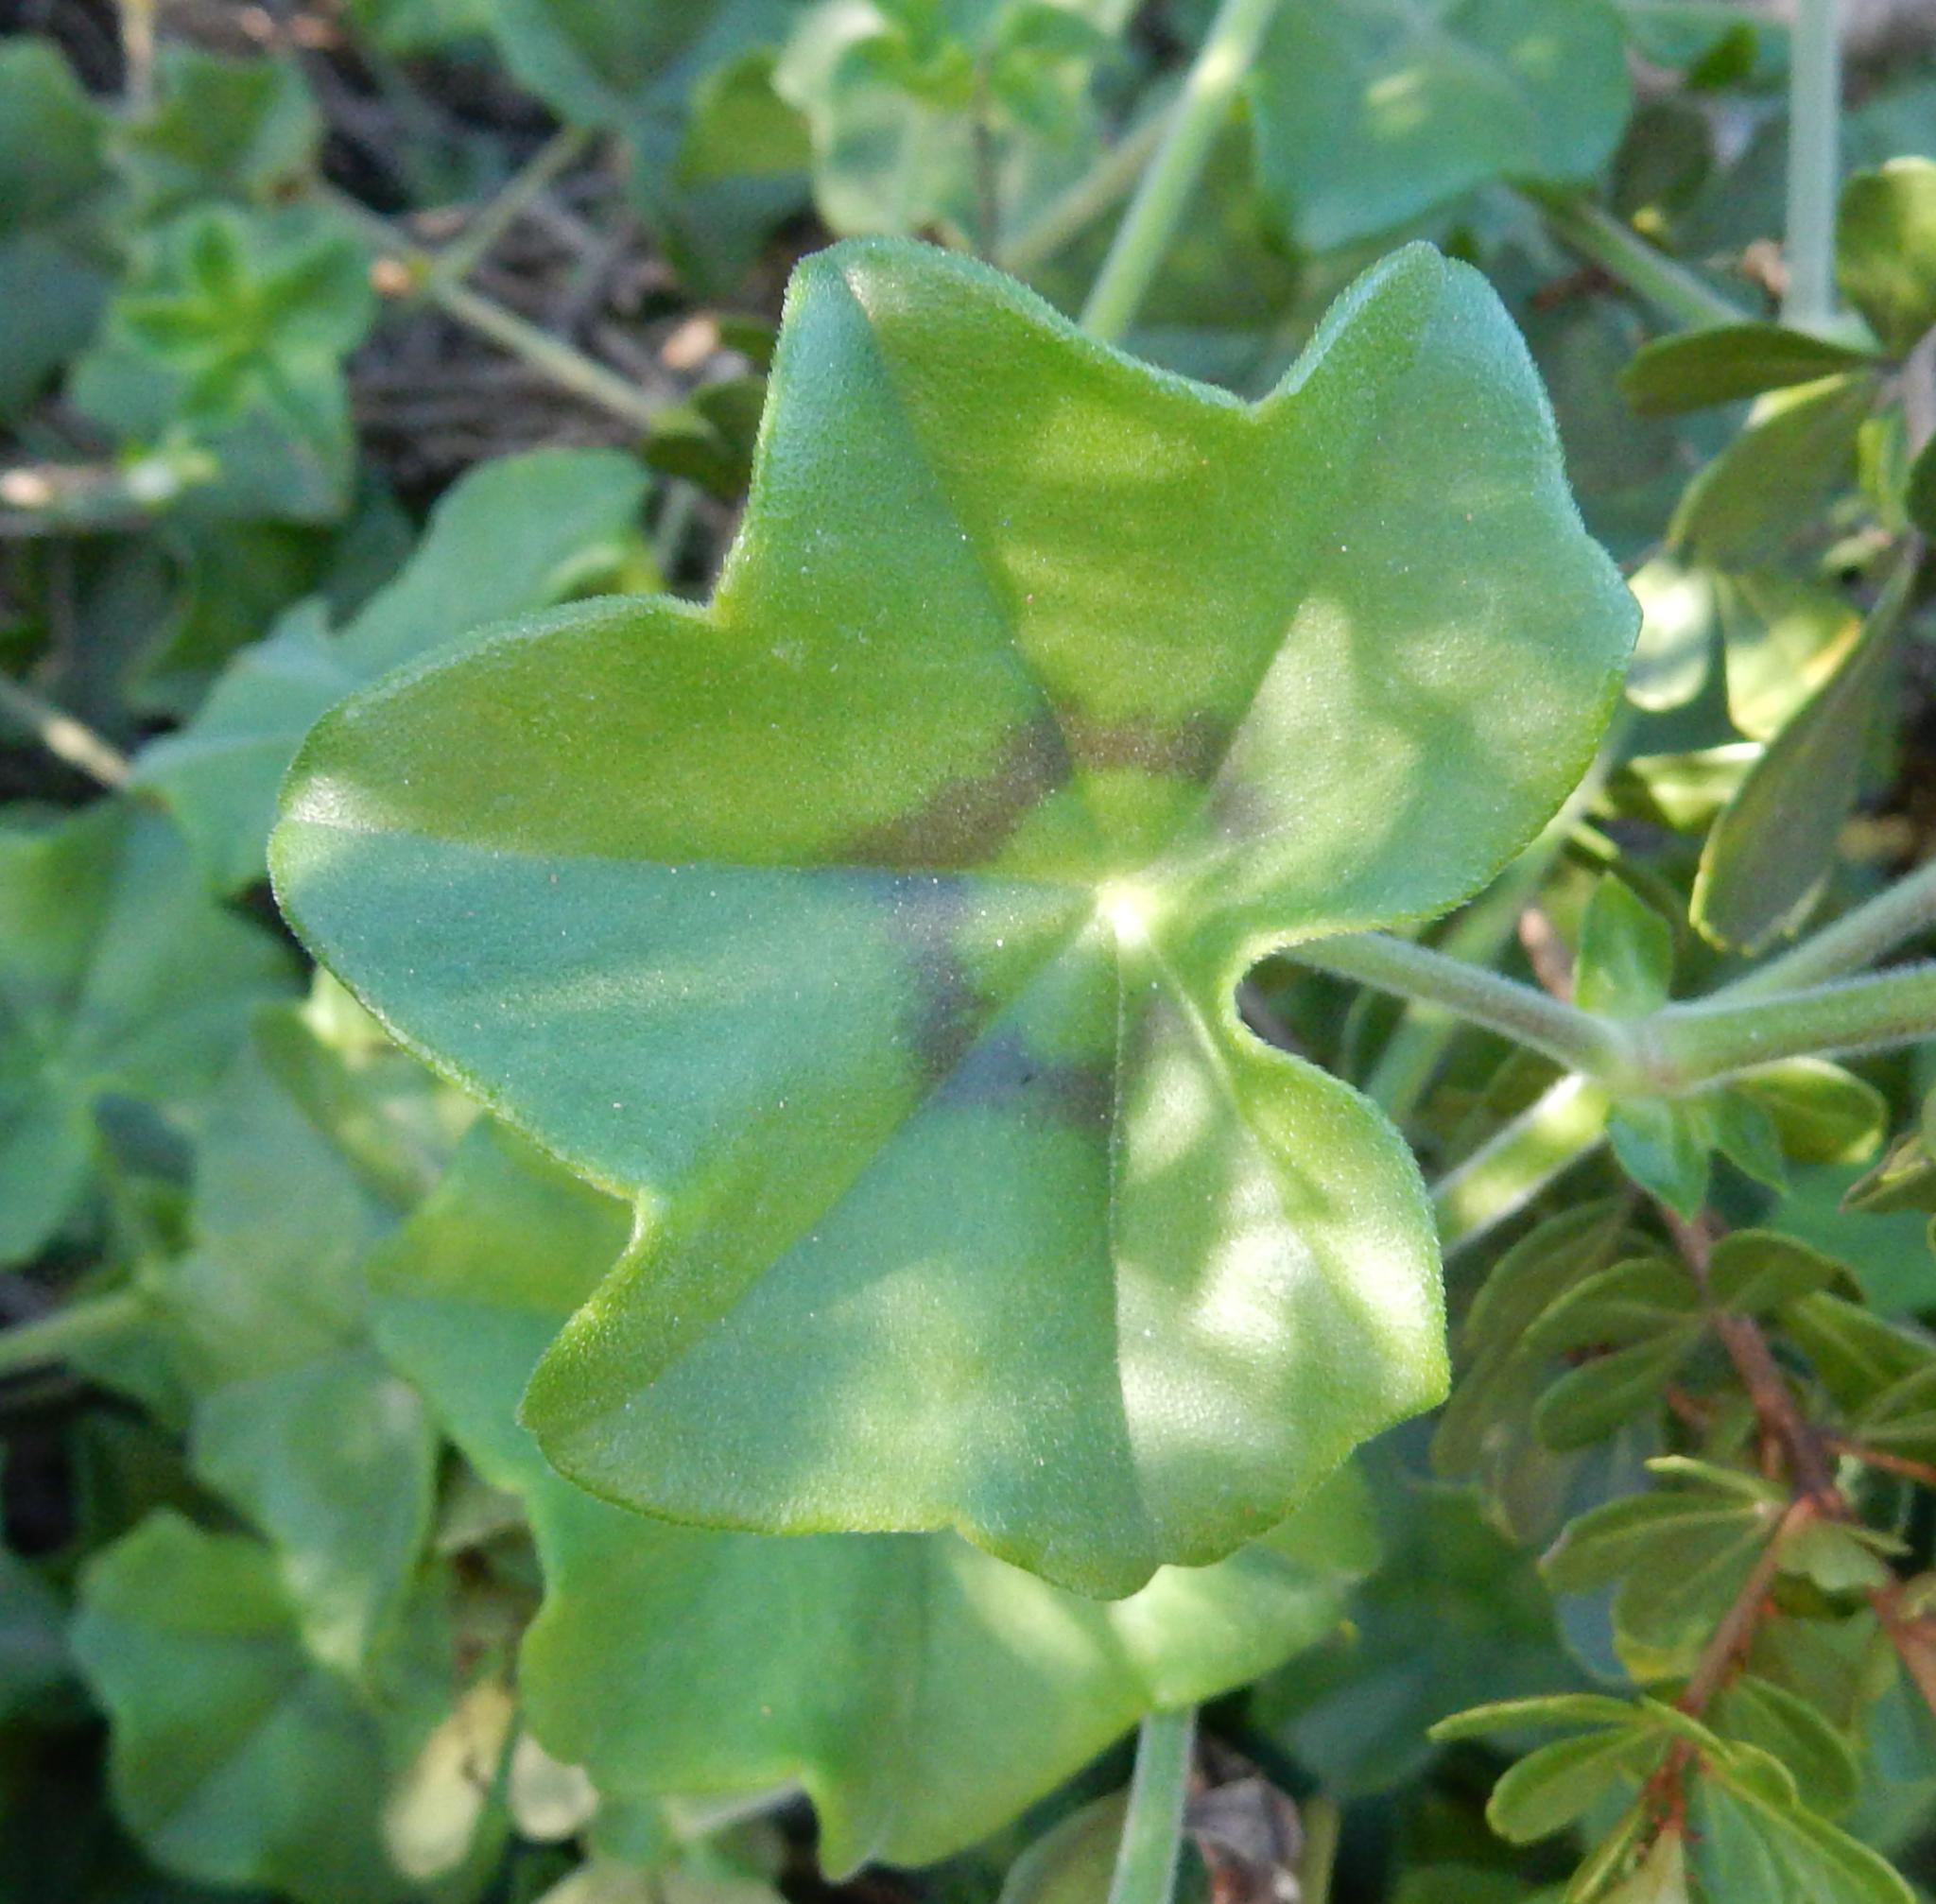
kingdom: Plantae
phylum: Tracheophyta
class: Magnoliopsida
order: Geraniales
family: Geraniaceae
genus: Pelargonium
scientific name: Pelargonium peltatum
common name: Ivyleaf geranium
